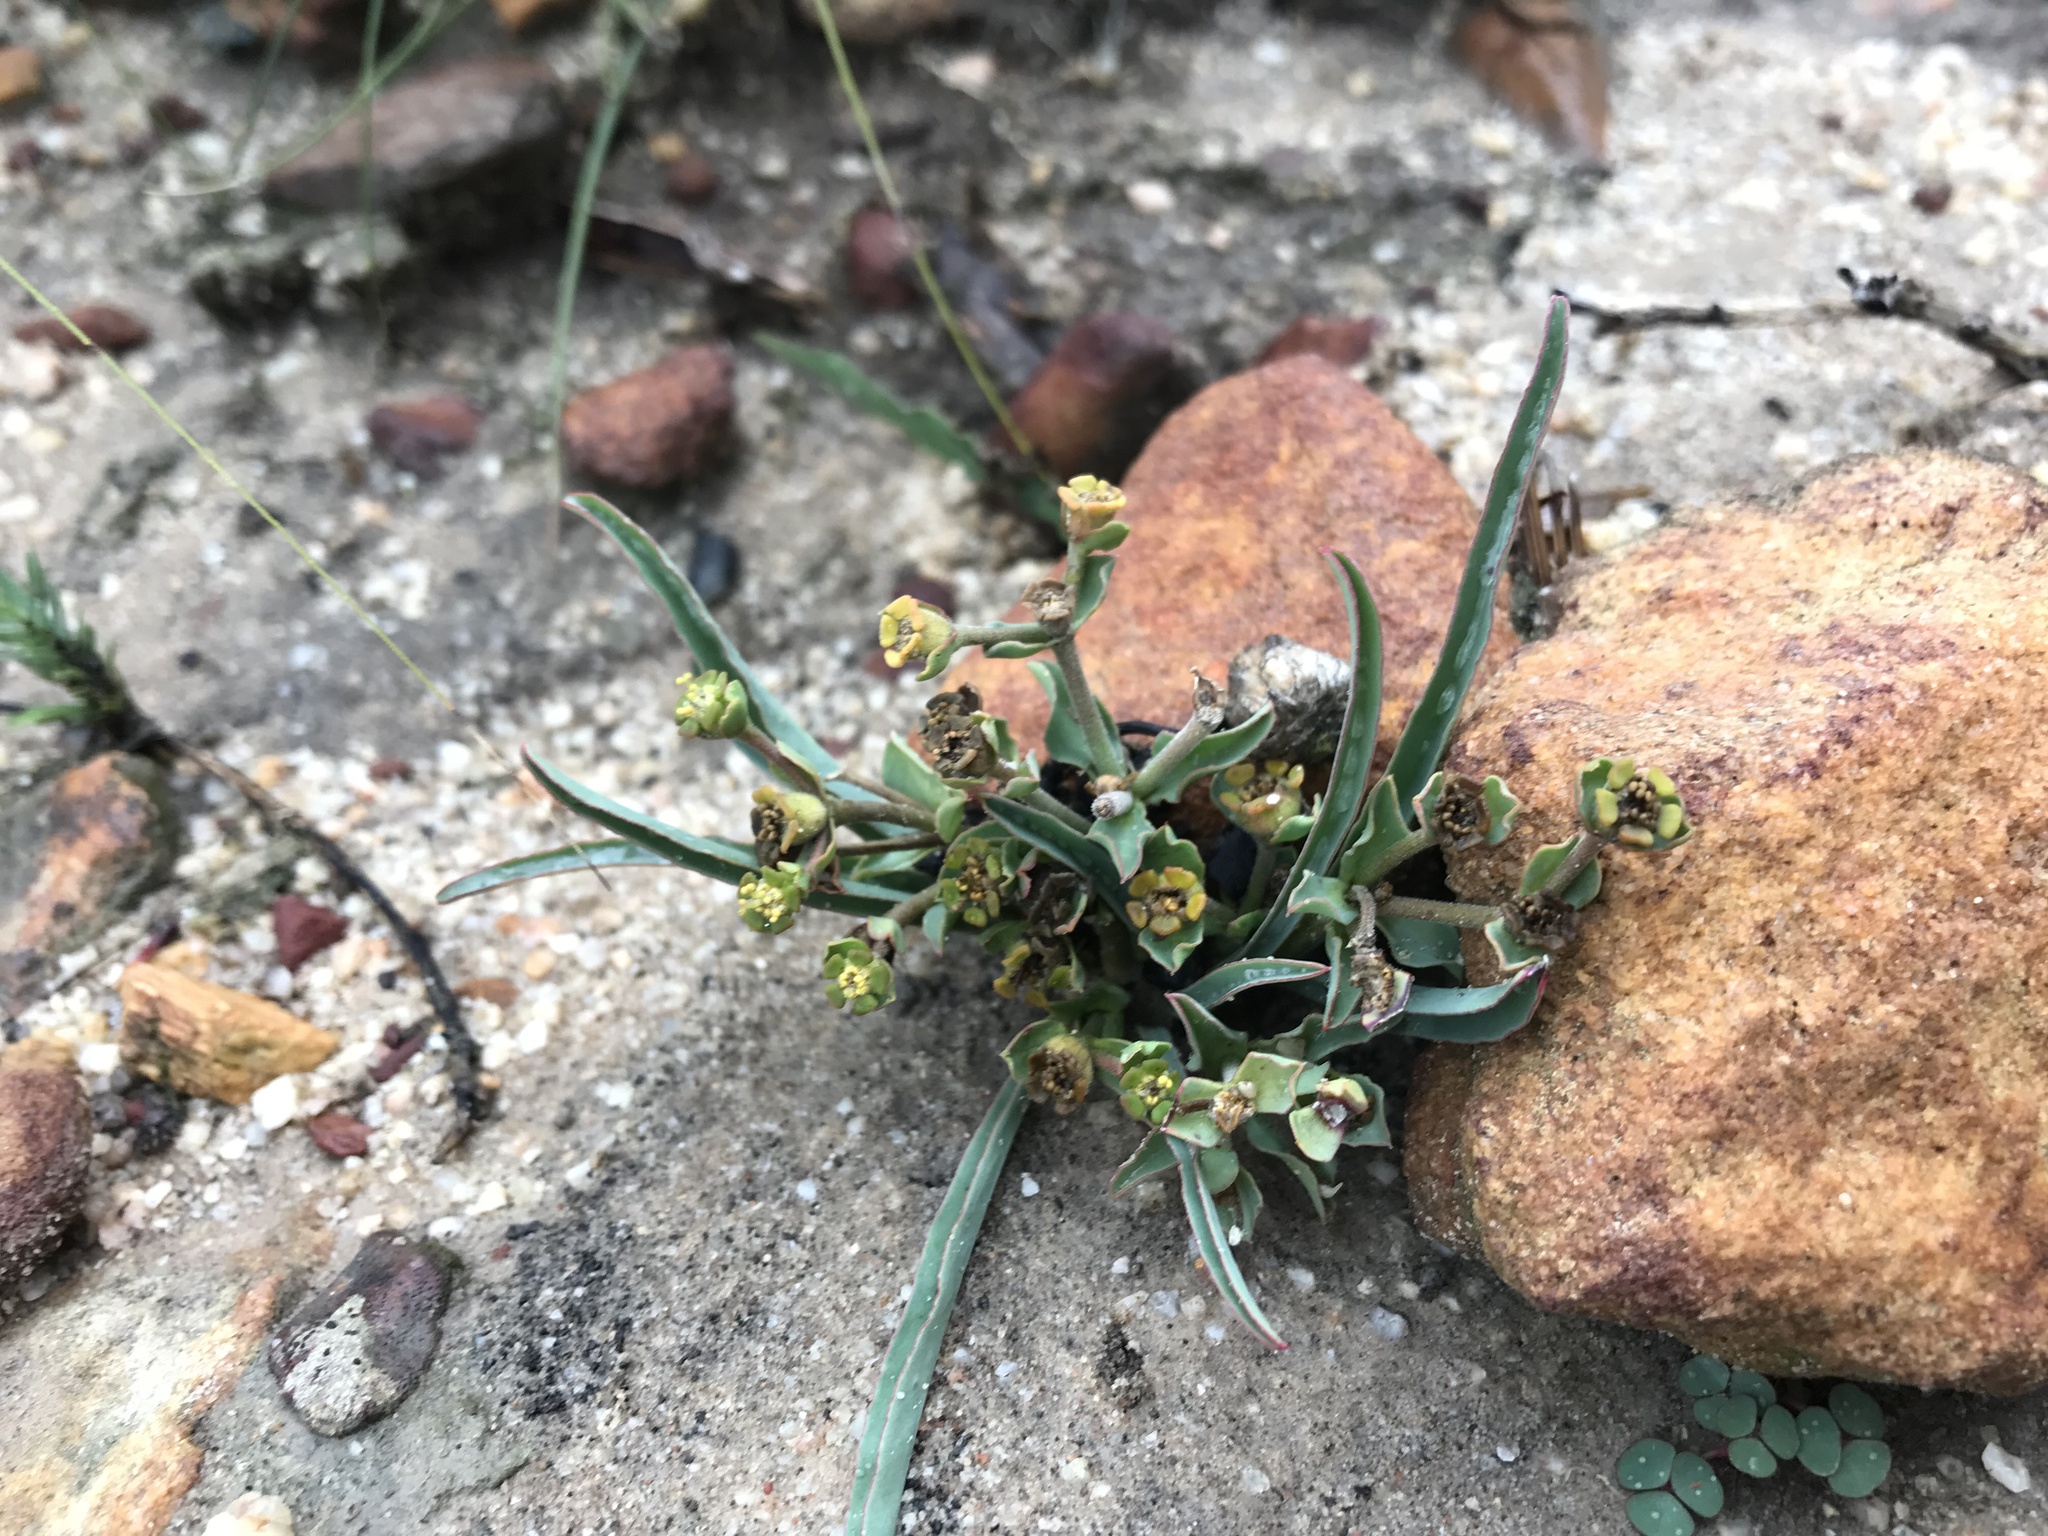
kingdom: Plantae
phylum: Tracheophyta
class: Magnoliopsida
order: Malpighiales
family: Euphorbiaceae
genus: Euphorbia
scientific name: Euphorbia tuberosa
